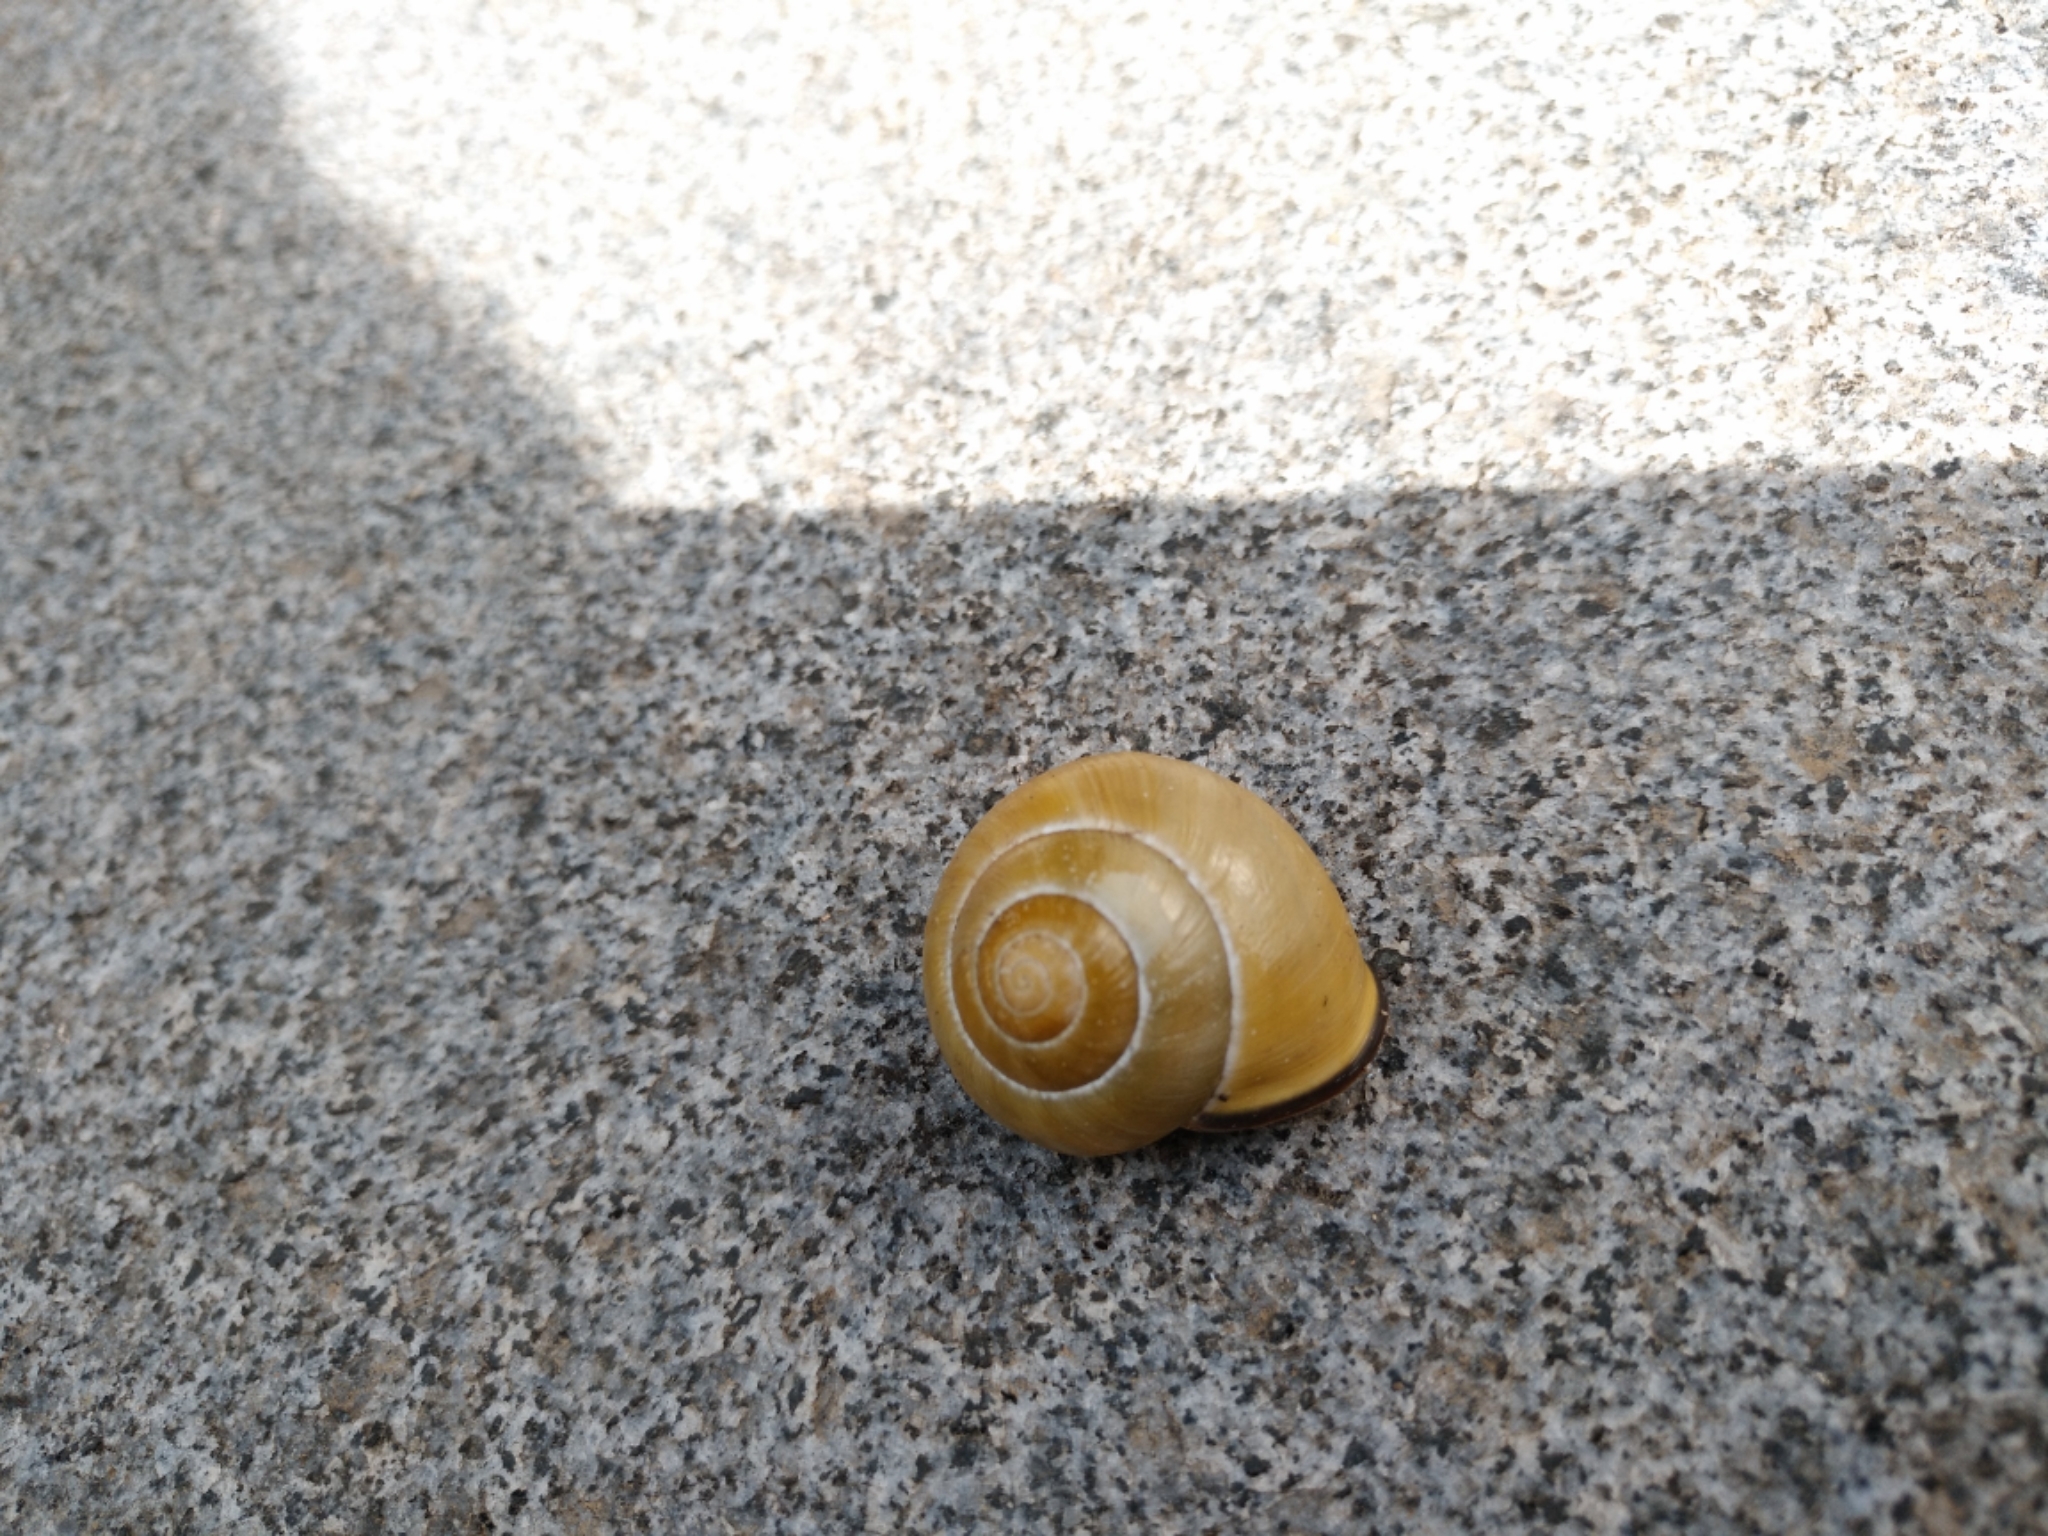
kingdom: Animalia
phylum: Mollusca
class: Gastropoda
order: Stylommatophora
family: Helicidae
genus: Cepaea
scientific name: Cepaea nemoralis
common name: Grovesnail
